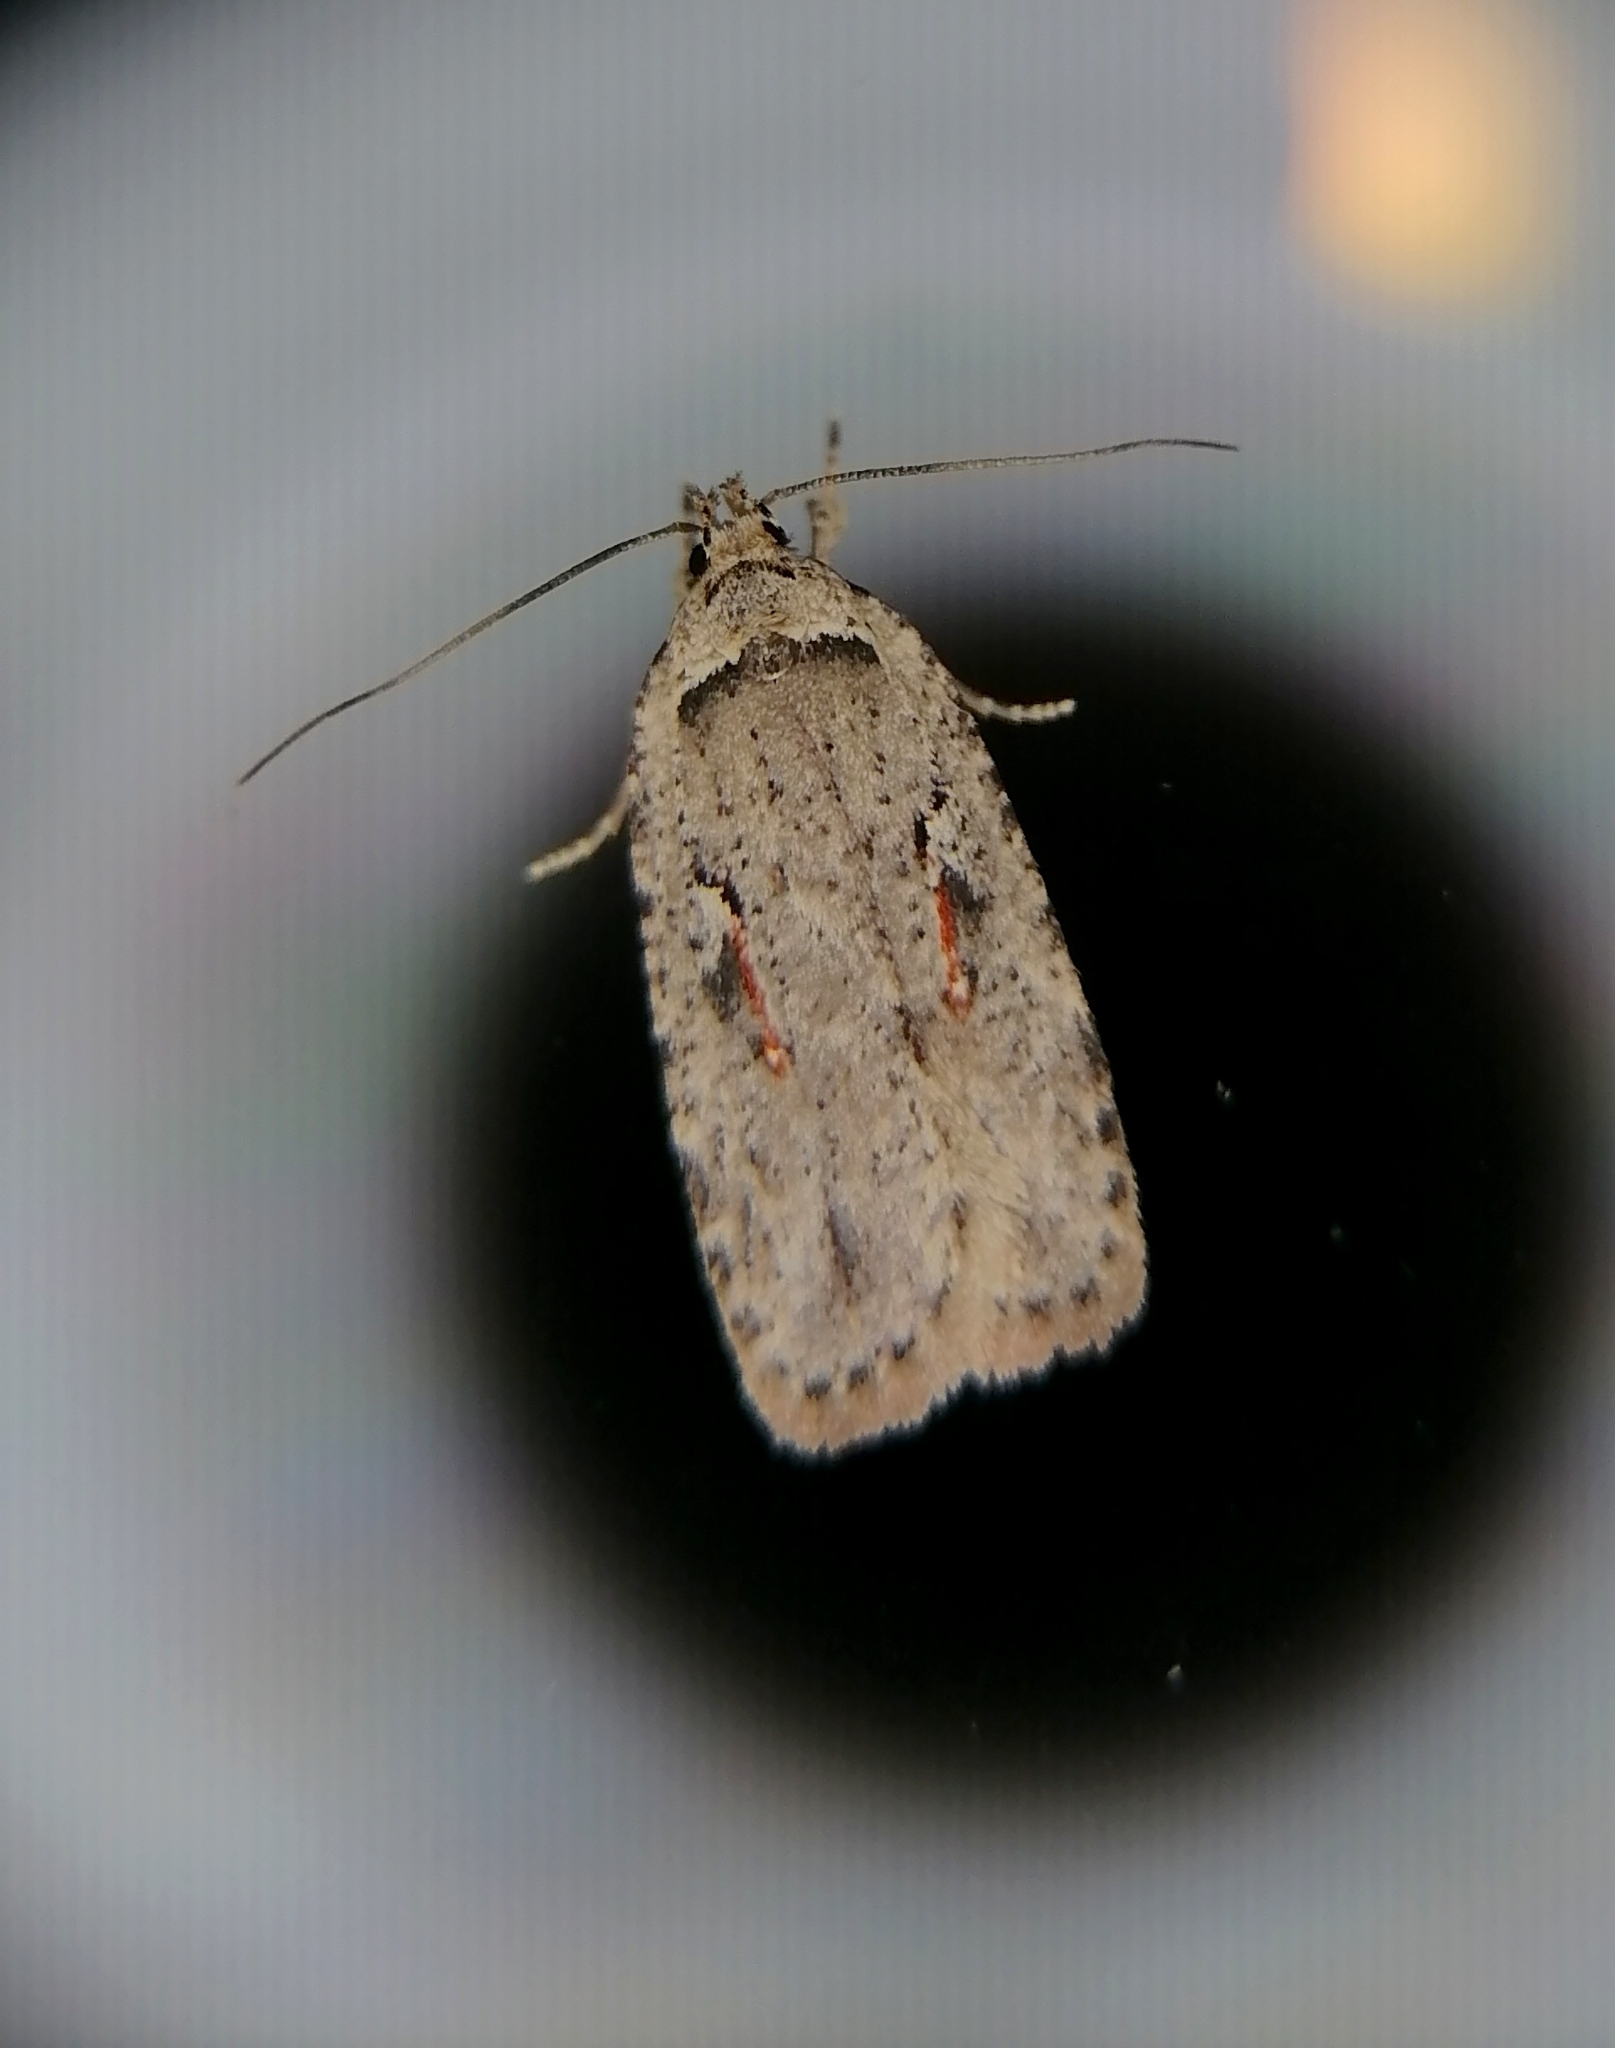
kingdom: Animalia
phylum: Arthropoda
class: Insecta
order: Lepidoptera
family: Depressariidae
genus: Agonopterix
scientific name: Agonopterix ocellana
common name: Red-letter flat-body
